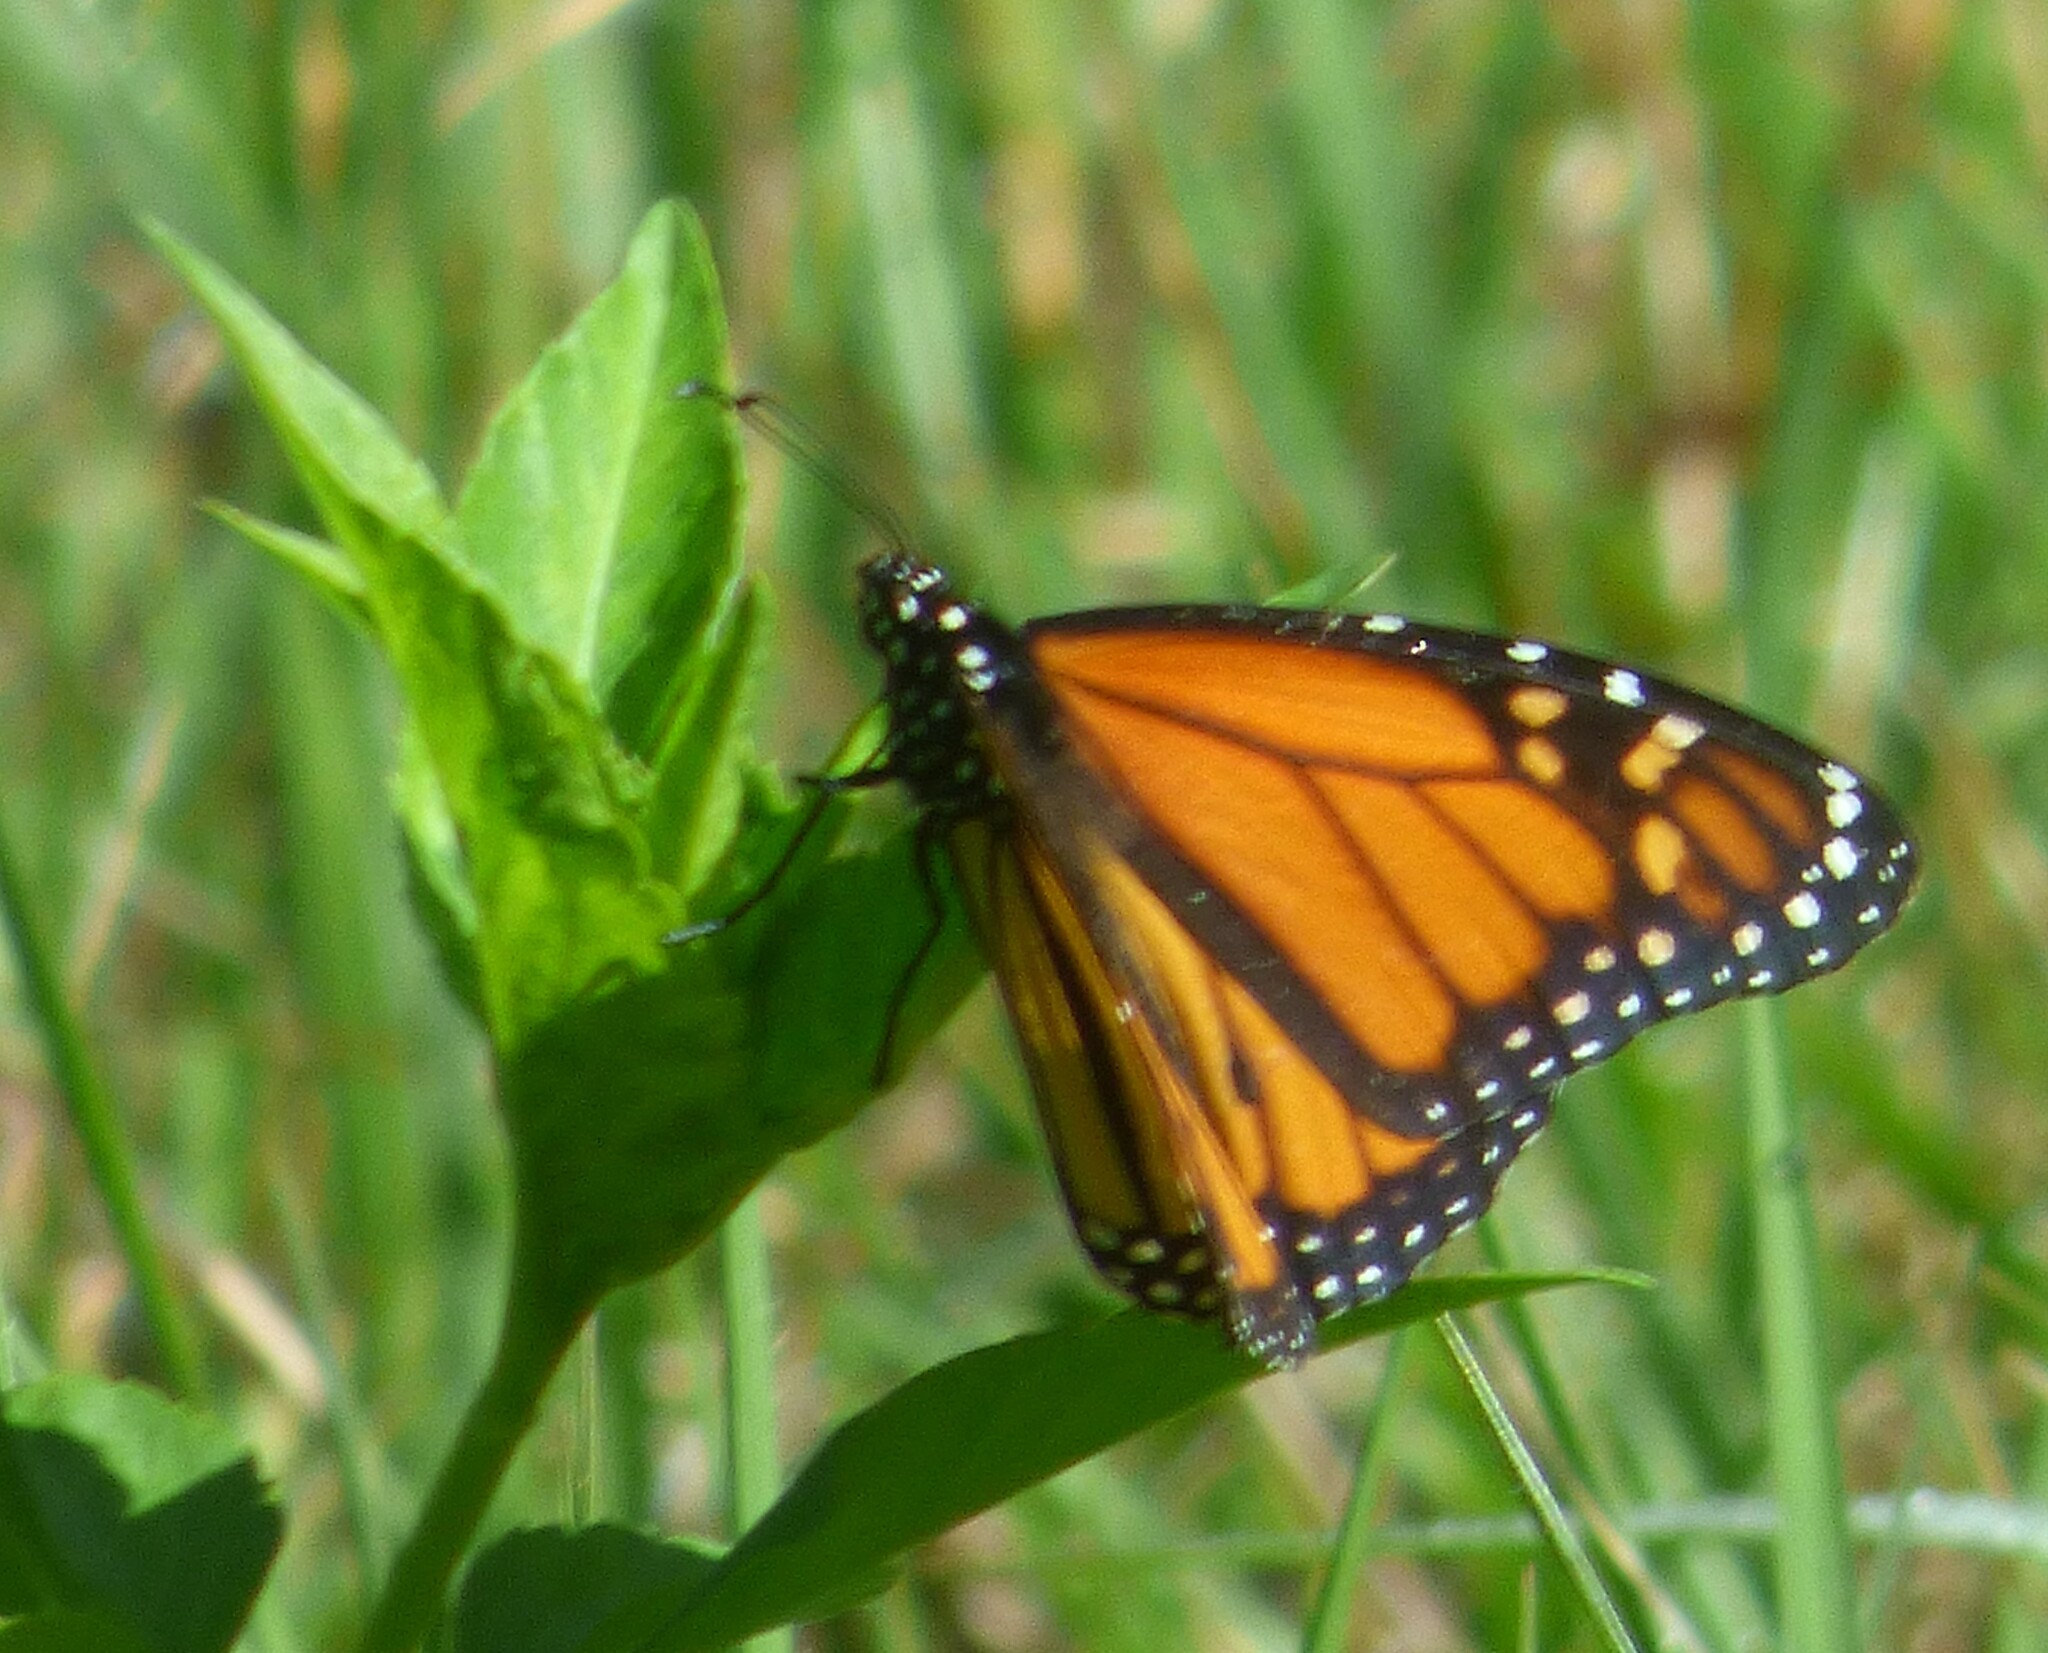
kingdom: Animalia
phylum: Arthropoda
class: Insecta
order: Lepidoptera
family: Nymphalidae
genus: Danaus
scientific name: Danaus plexippus
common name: Monarch
